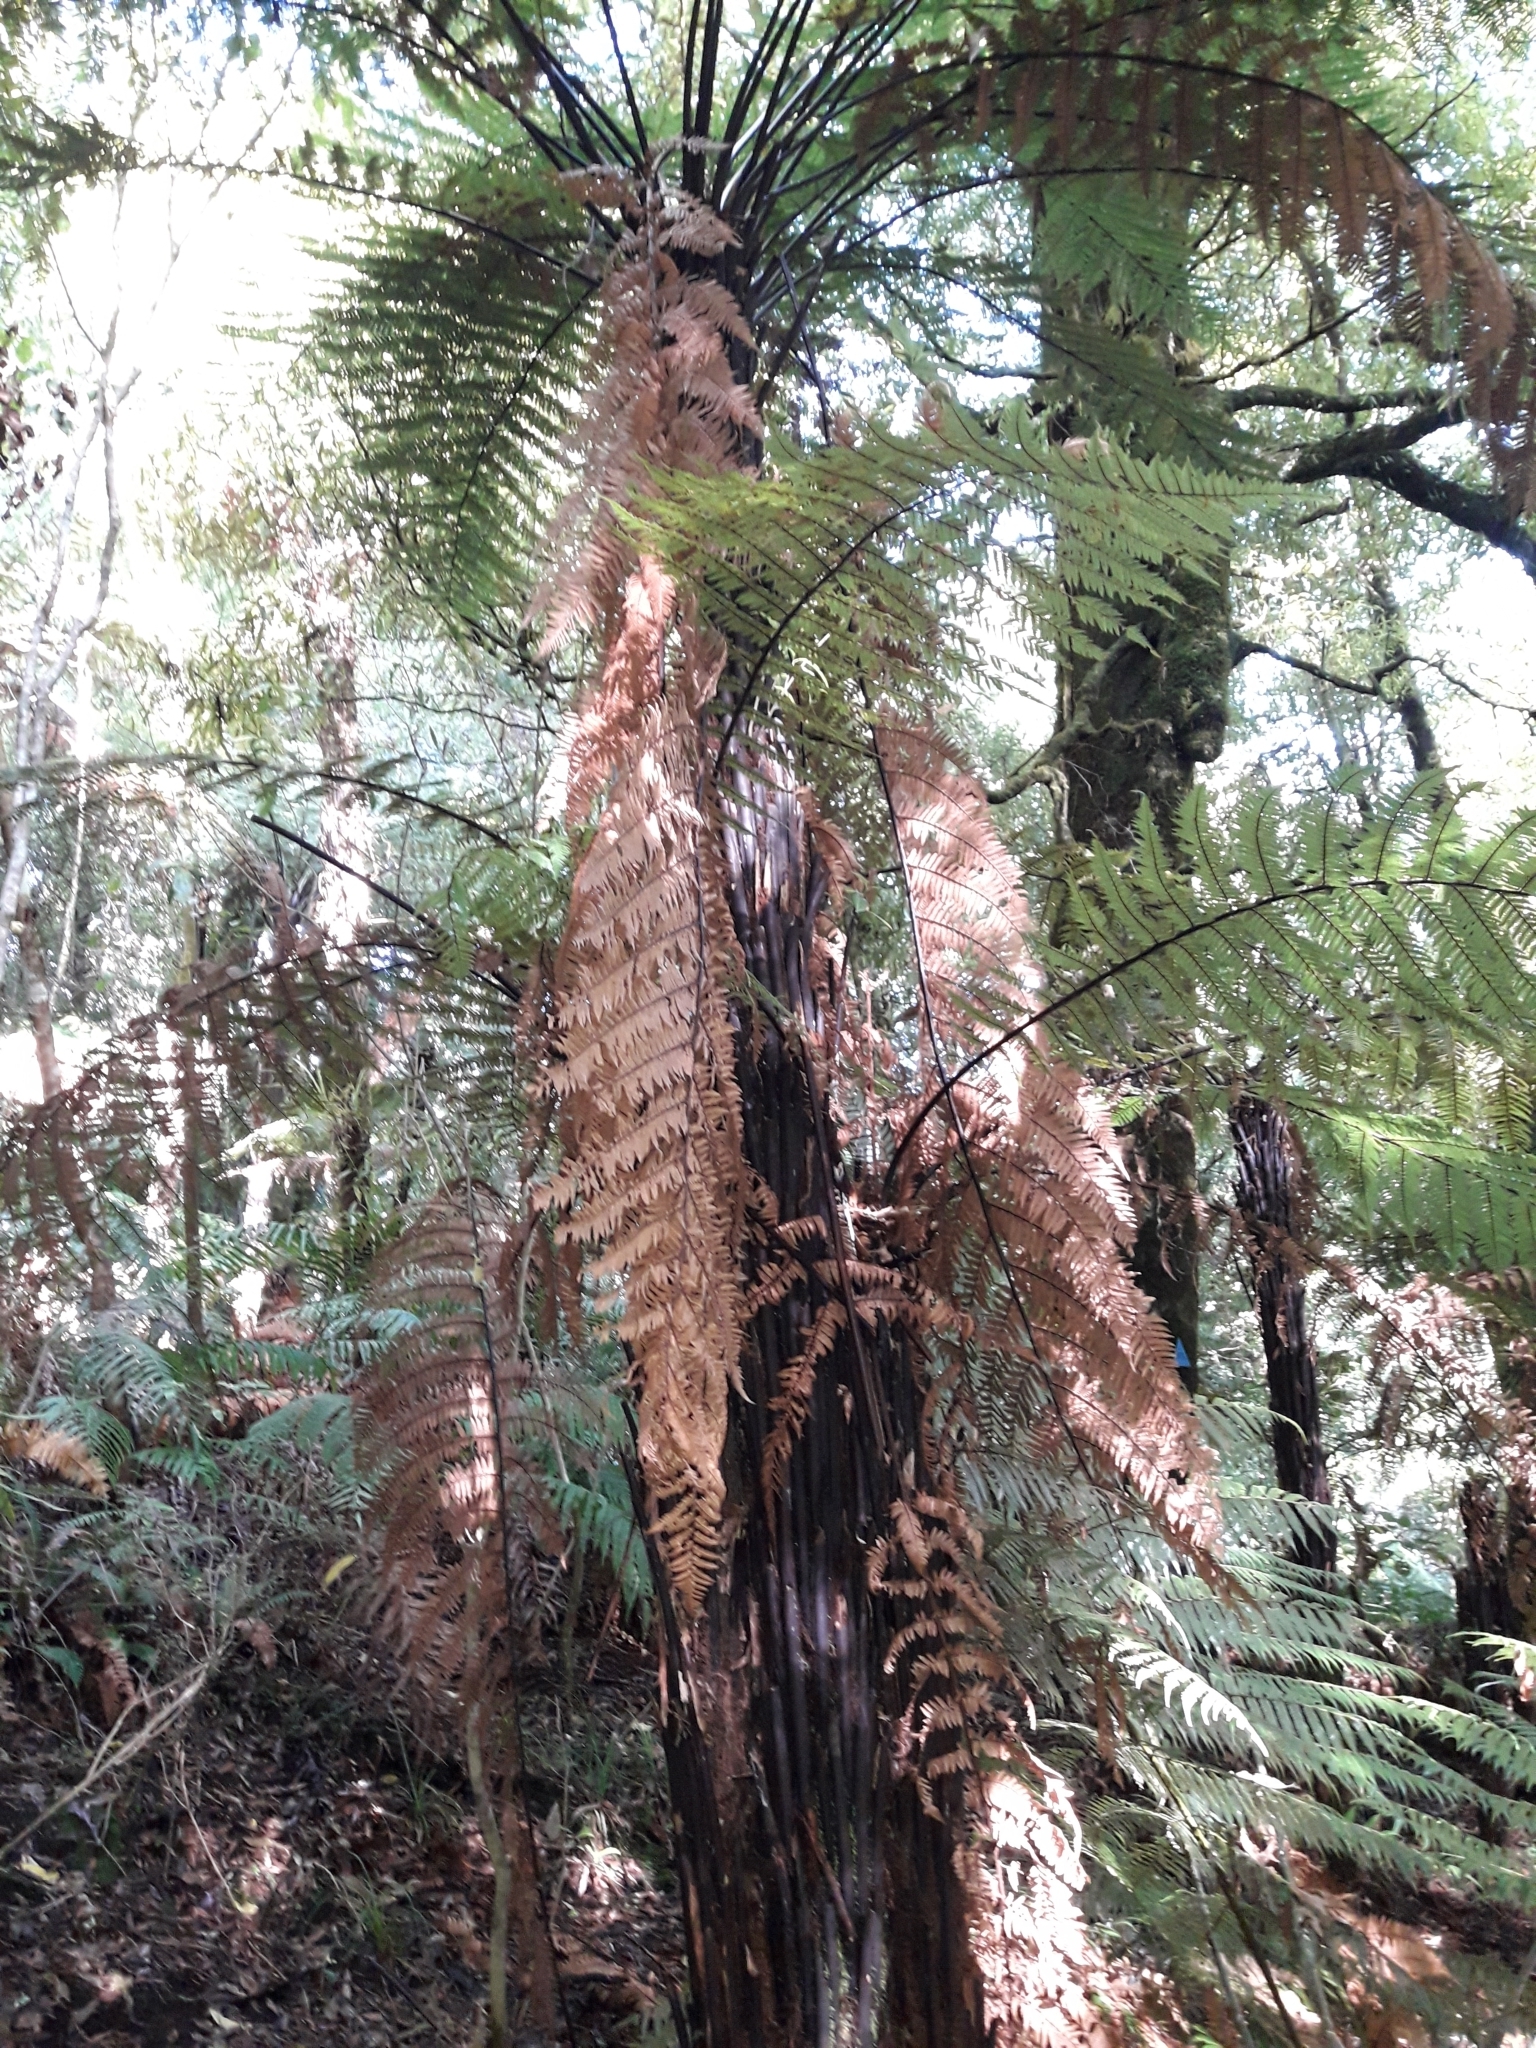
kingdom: Plantae
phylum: Tracheophyta
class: Polypodiopsida
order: Cyatheales
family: Dicksoniaceae
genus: Dicksonia
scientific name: Dicksonia squarrosa
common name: Hard treefern
